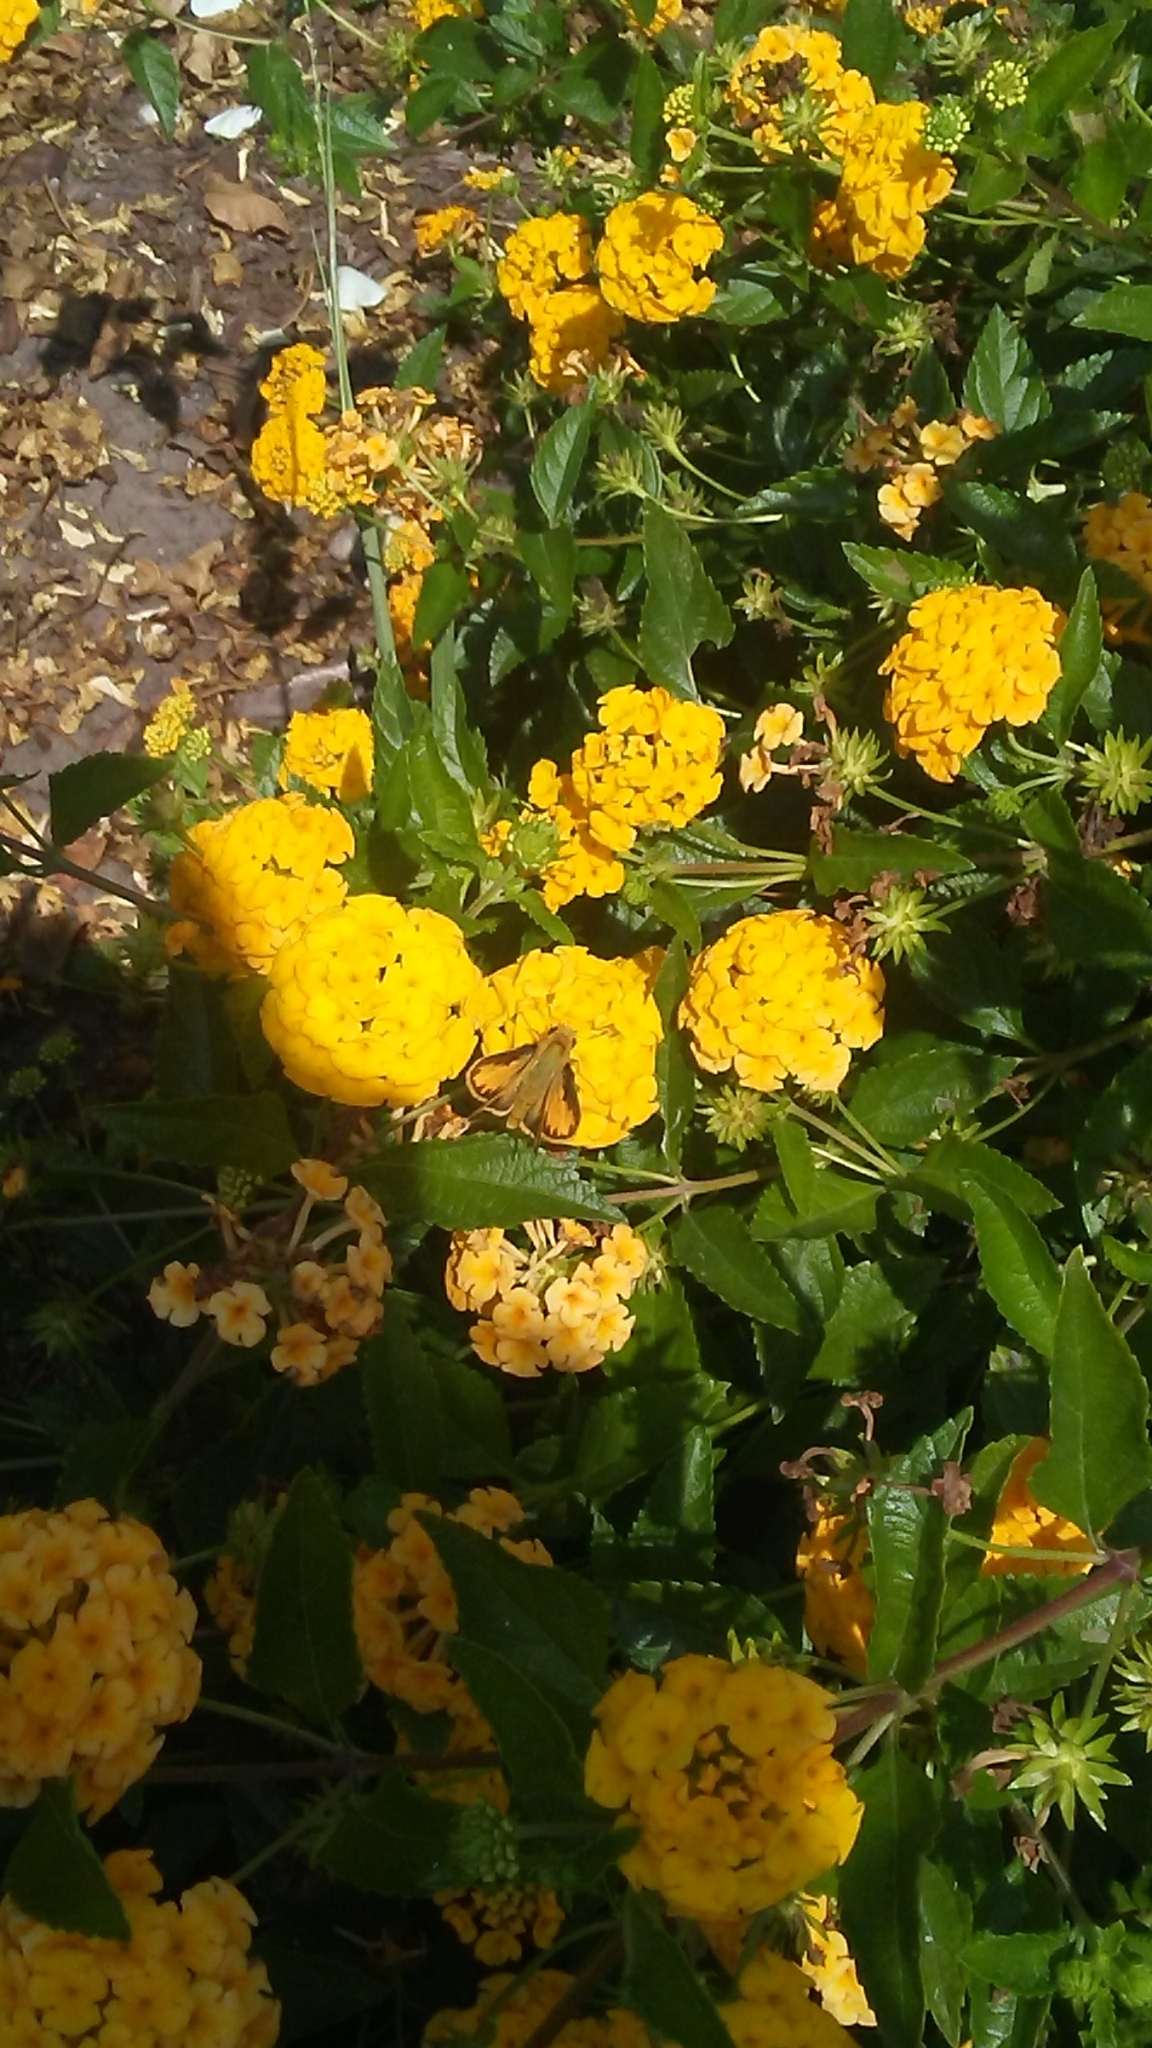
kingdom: Animalia
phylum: Arthropoda
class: Insecta
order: Lepidoptera
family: Hesperiidae
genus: Hylephila
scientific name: Hylephila phyleus
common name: Fiery skipper
